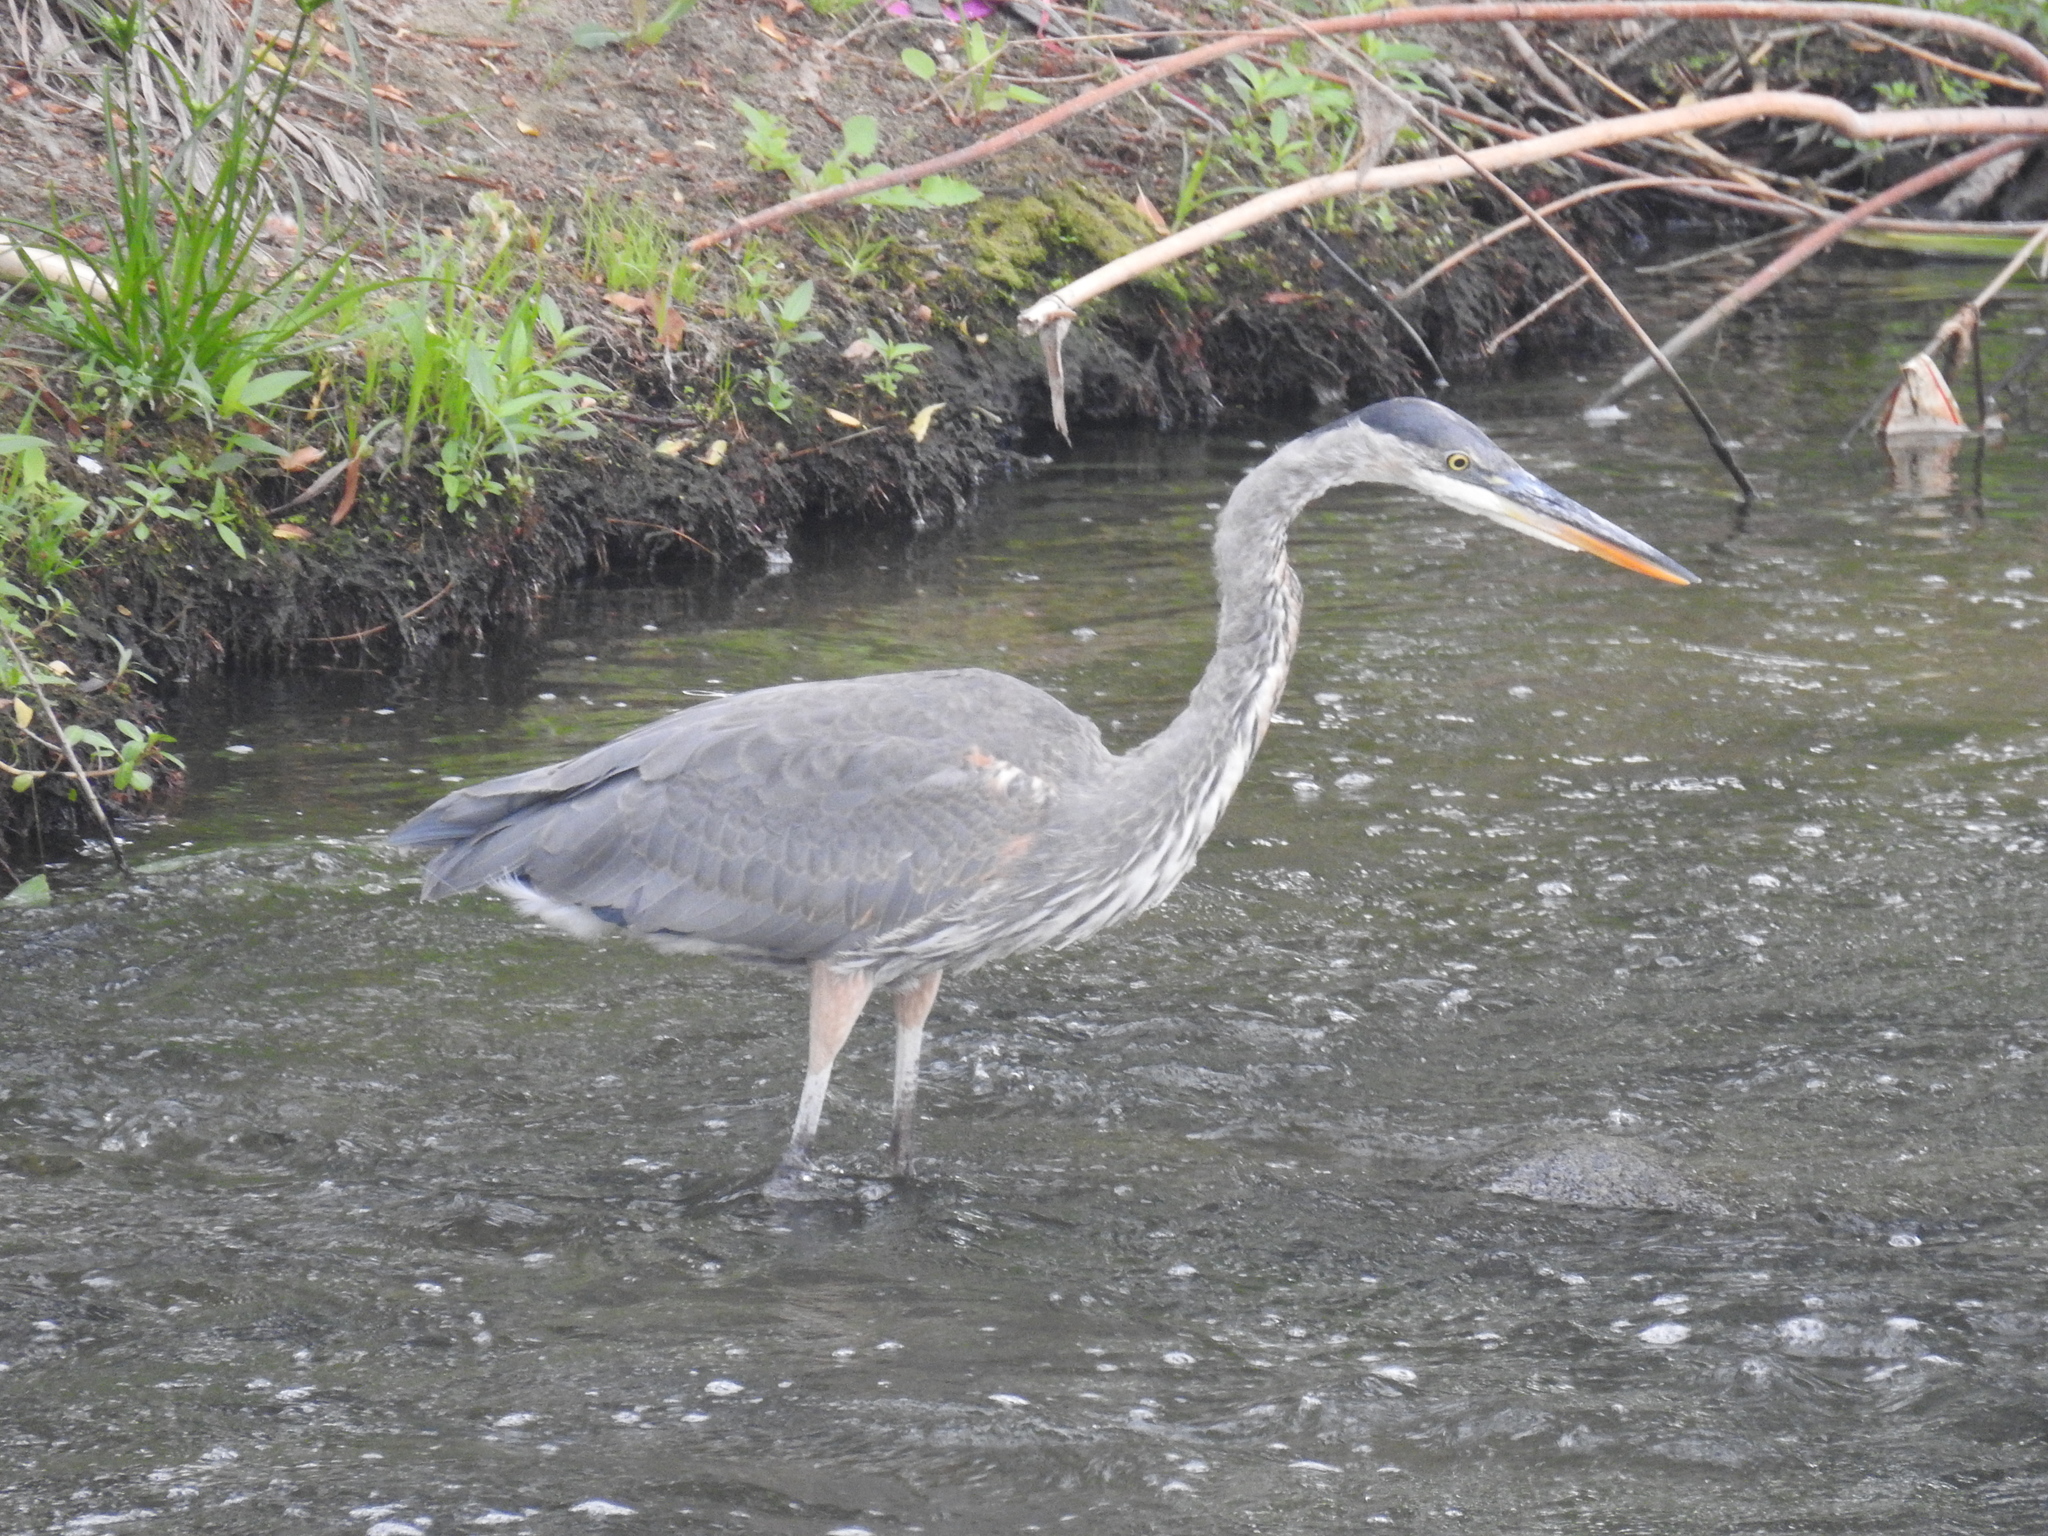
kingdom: Animalia
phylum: Chordata
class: Aves
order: Pelecaniformes
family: Ardeidae
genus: Ardea
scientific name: Ardea herodias
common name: Great blue heron
